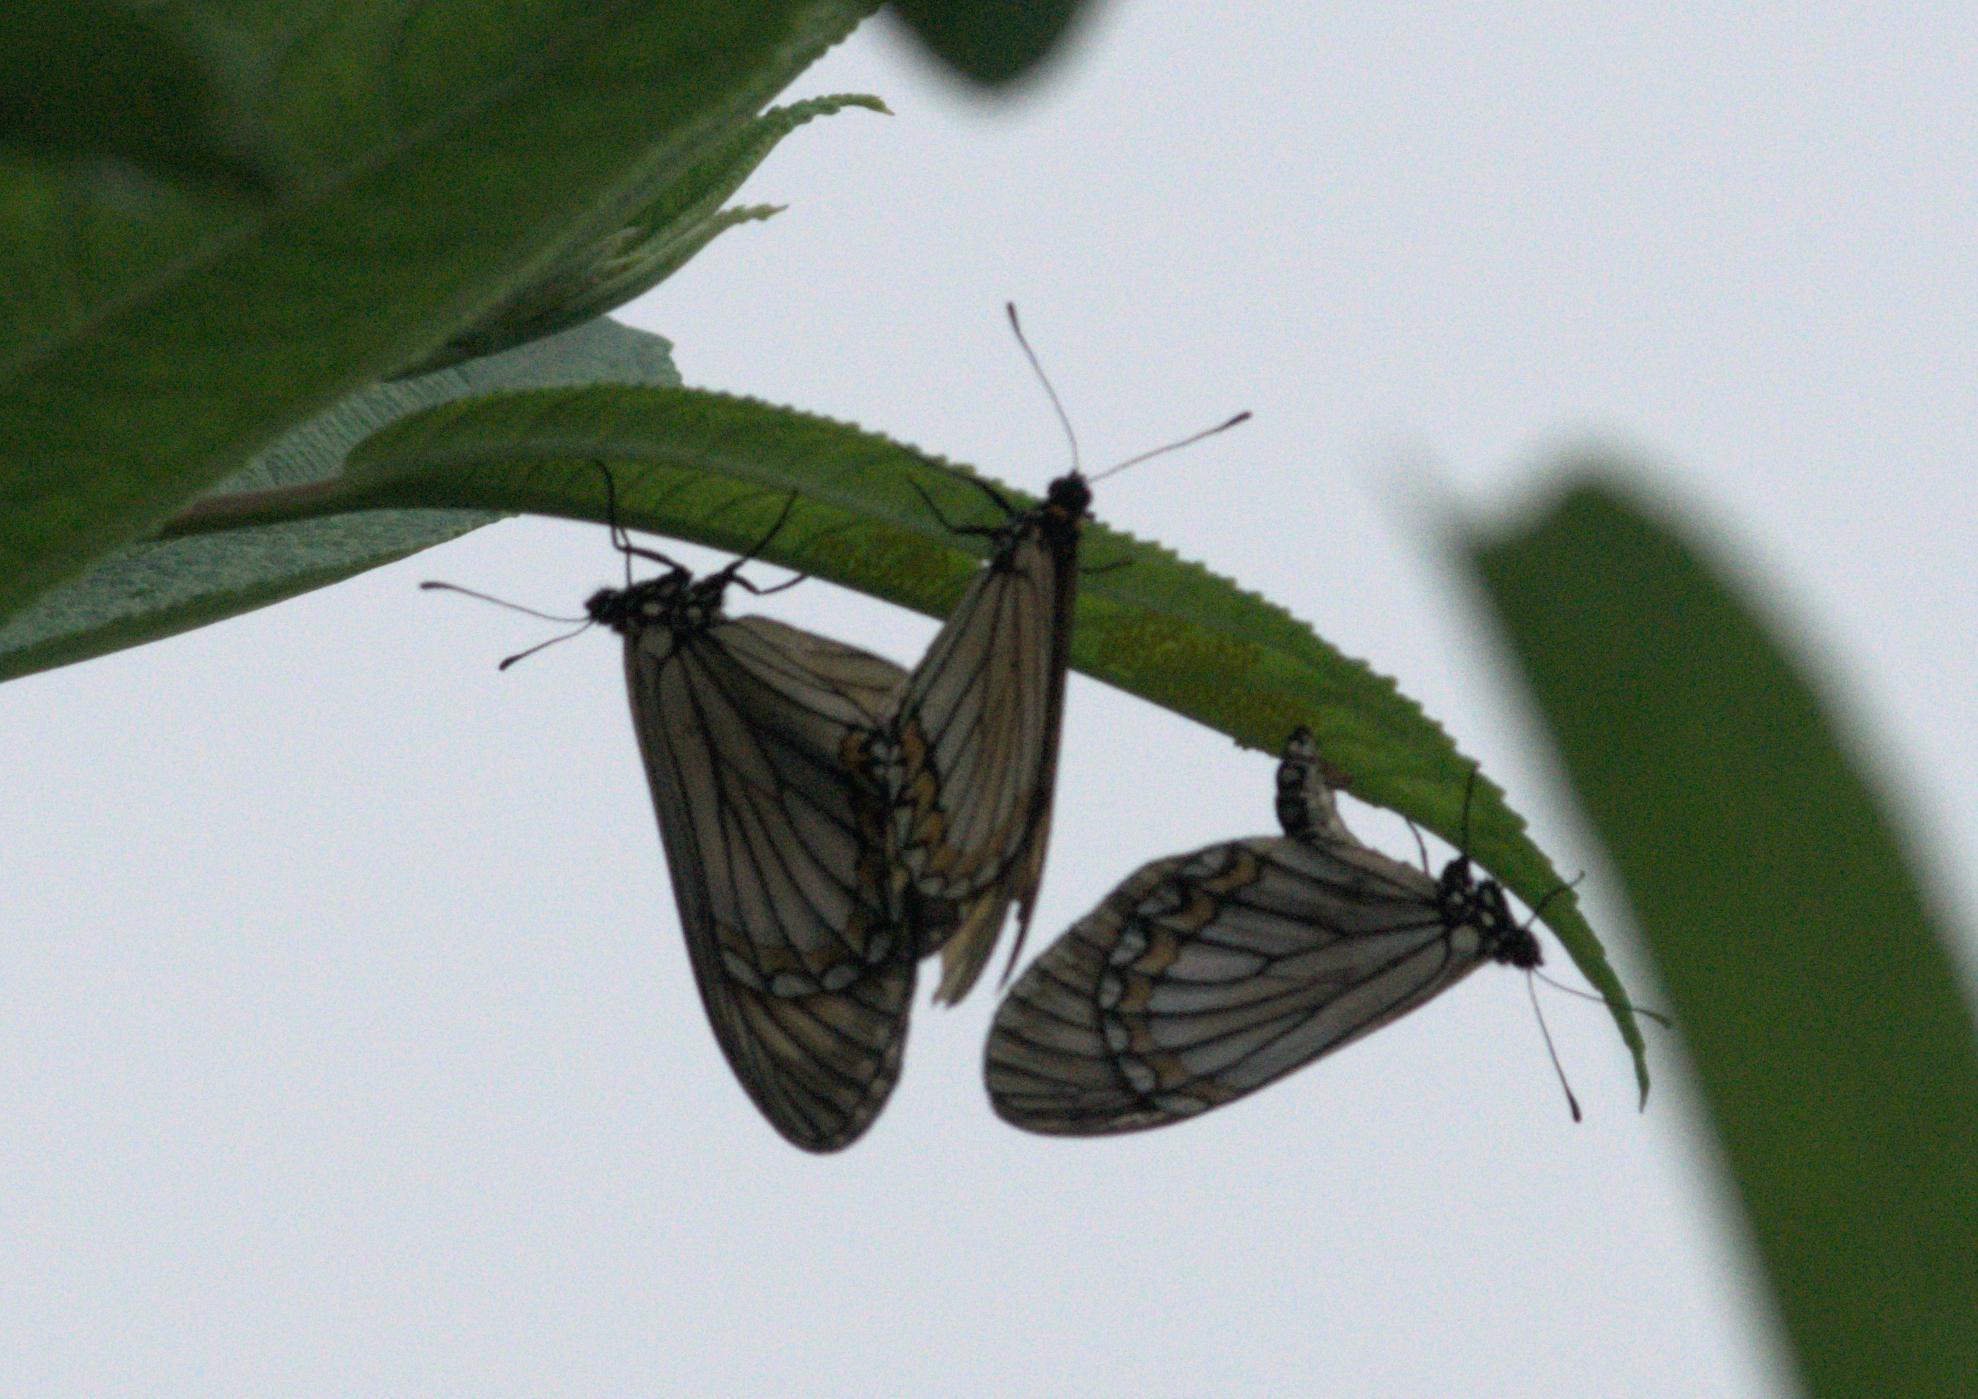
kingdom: Animalia
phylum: Arthropoda
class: Insecta
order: Lepidoptera
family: Nymphalidae
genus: Acraea
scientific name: Acraea Telchinia issoria
